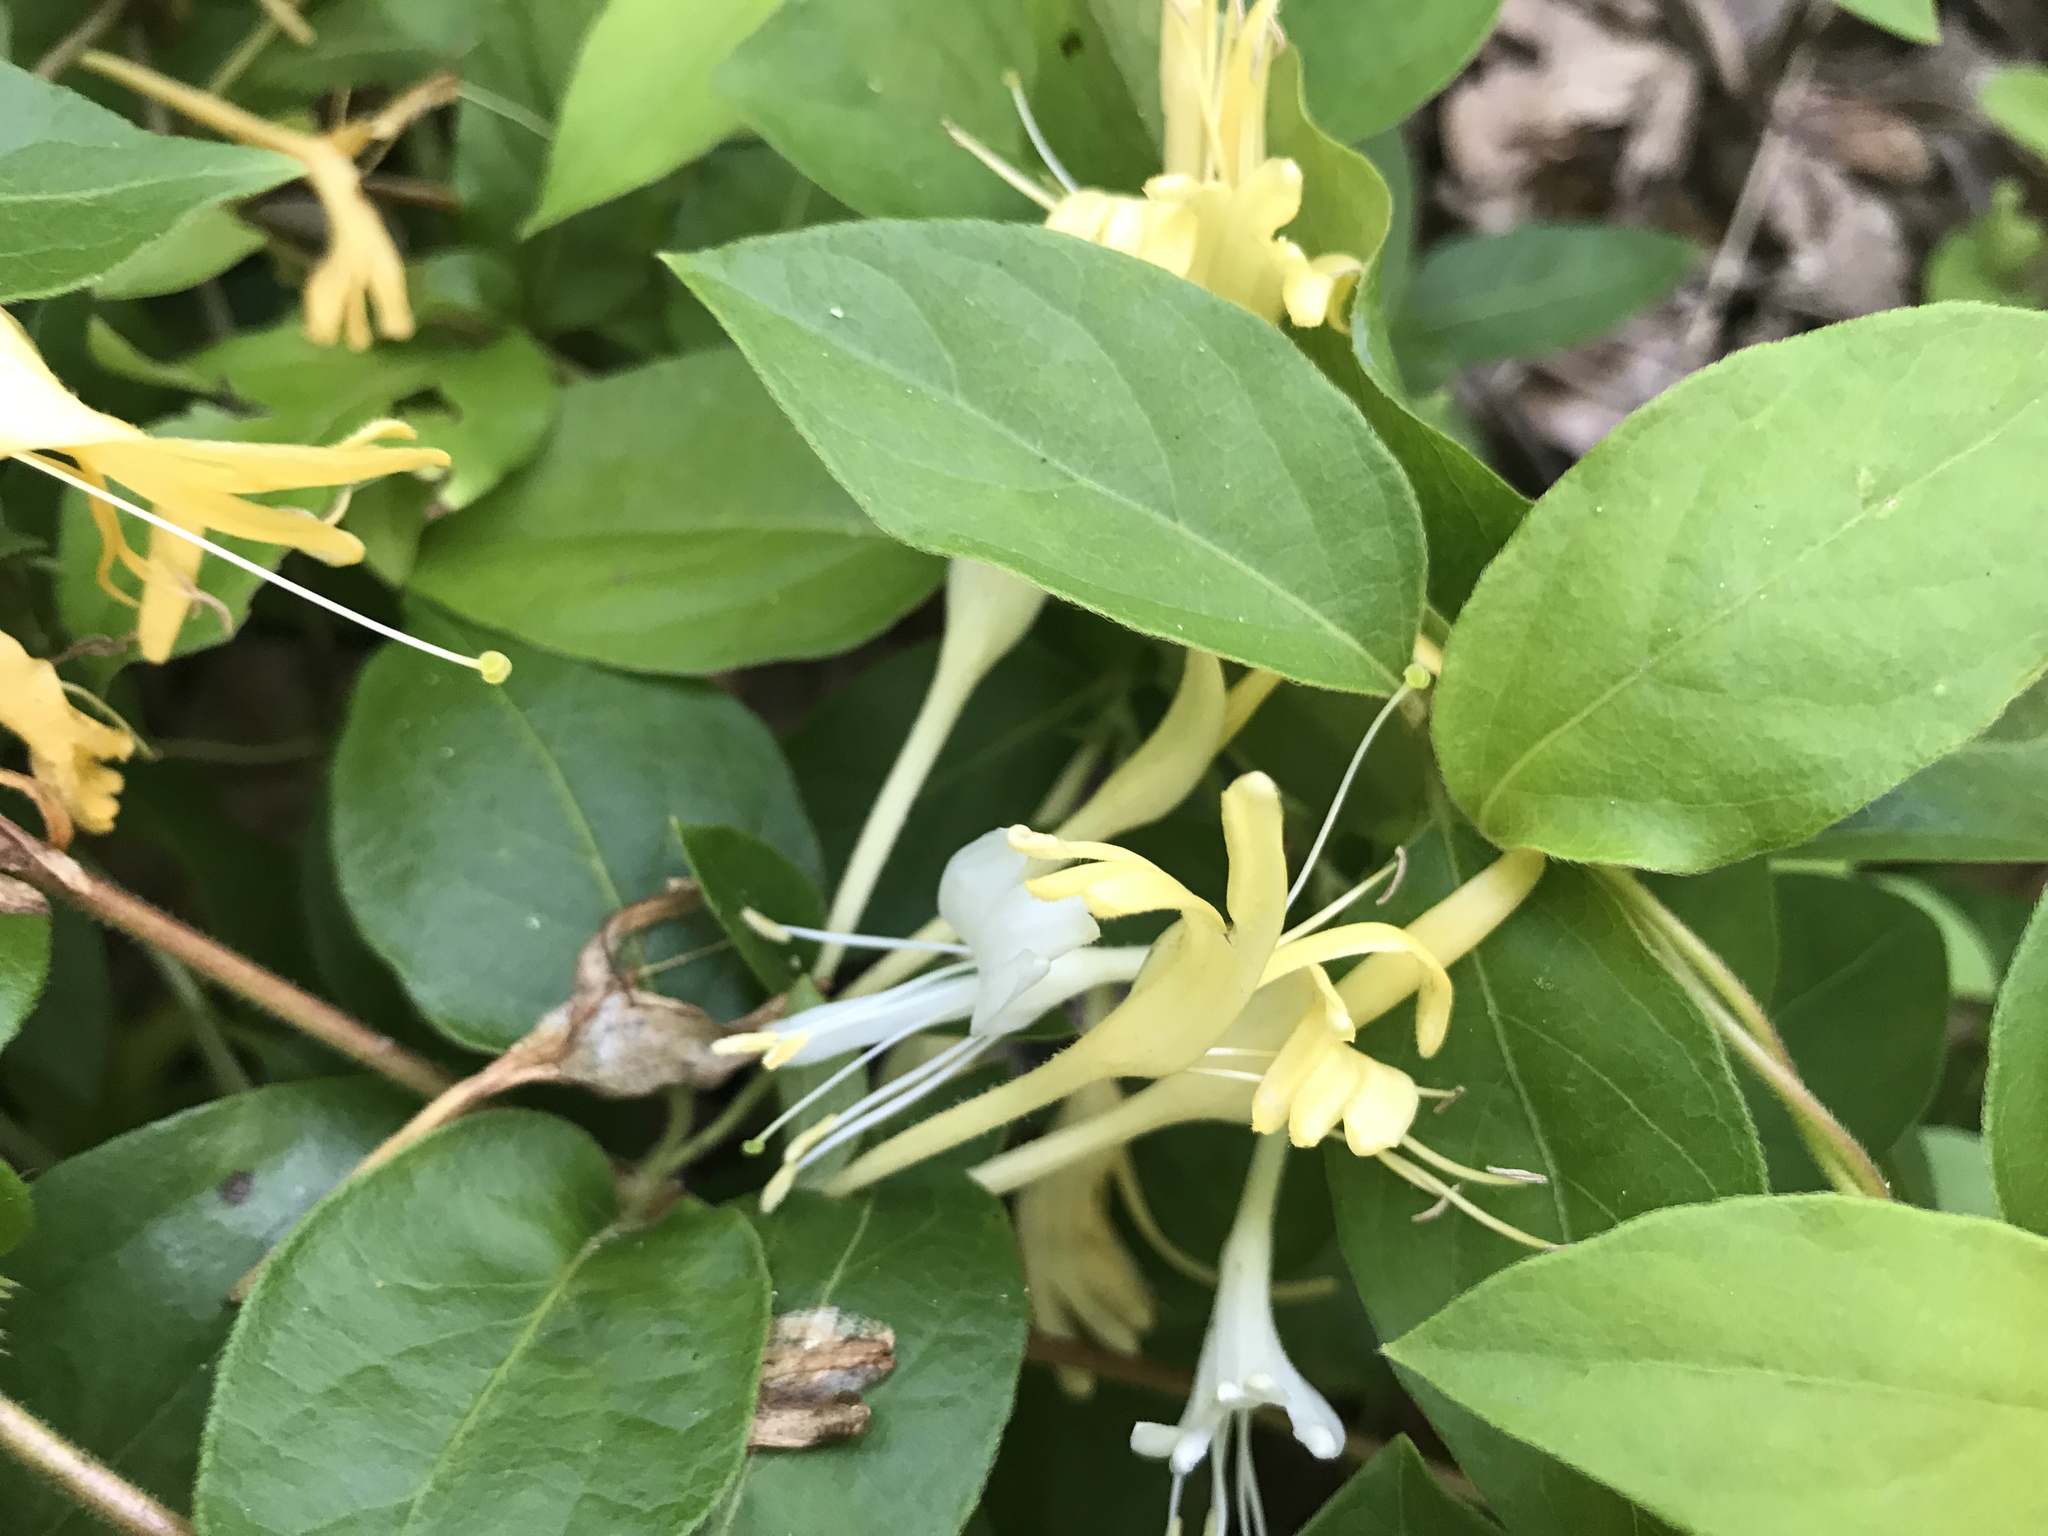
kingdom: Plantae
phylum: Tracheophyta
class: Magnoliopsida
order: Dipsacales
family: Caprifoliaceae
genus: Lonicera
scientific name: Lonicera japonica
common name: Japanese honeysuckle
